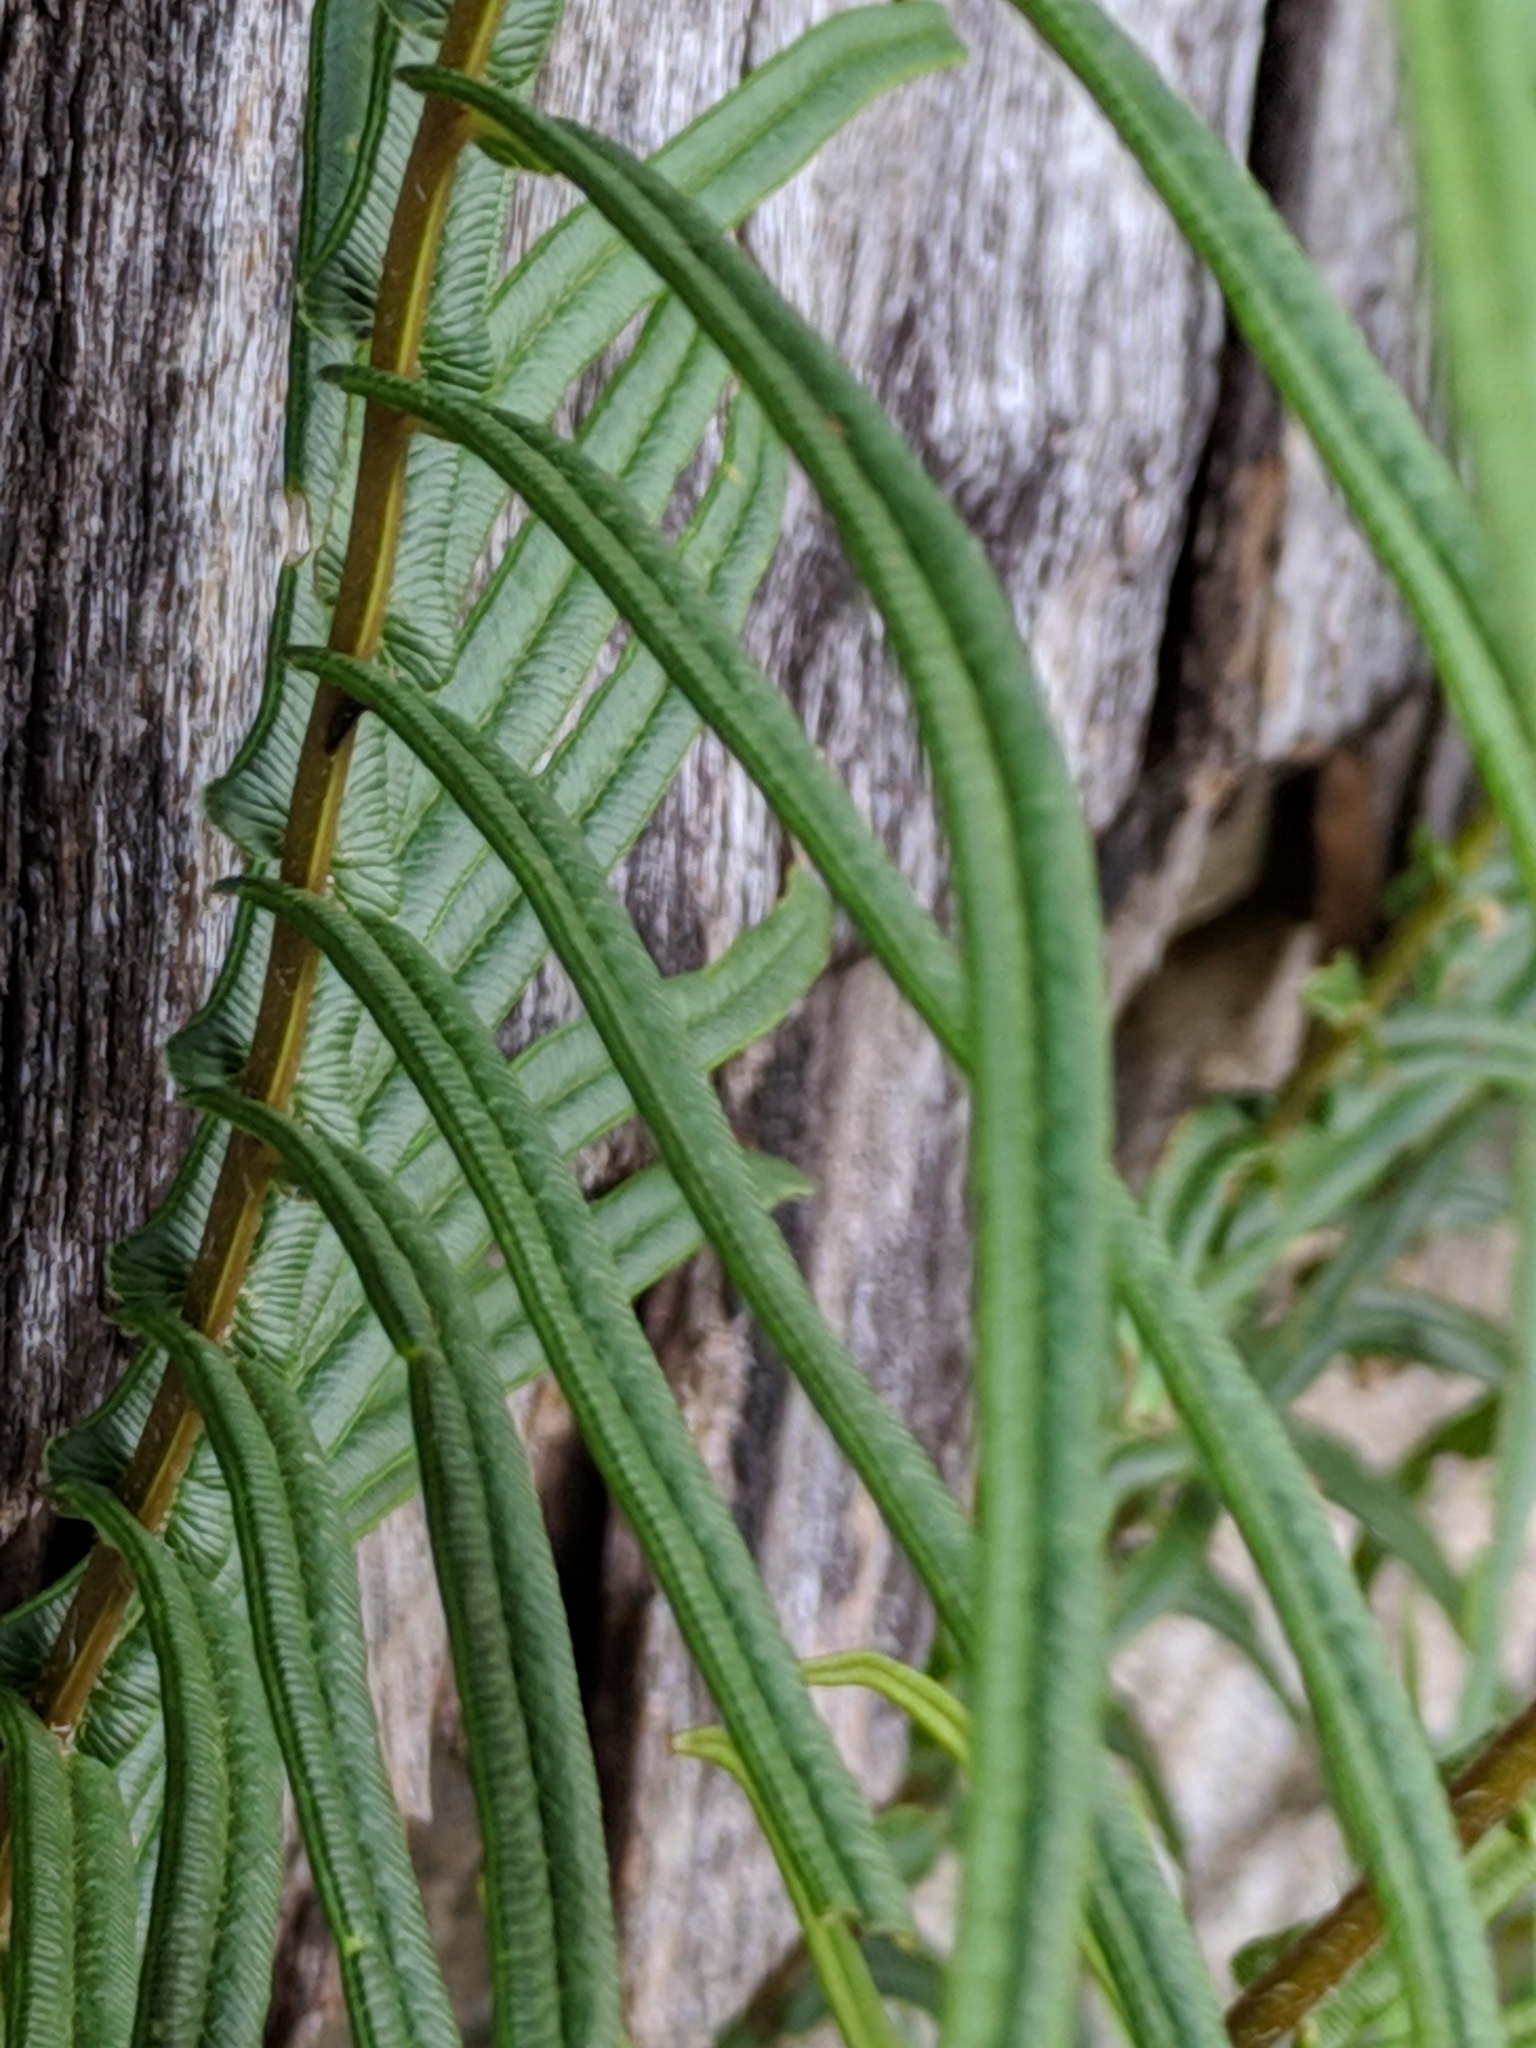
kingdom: Plantae
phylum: Tracheophyta
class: Polypodiopsida
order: Polypodiales
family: Pteridaceae
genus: Pteris
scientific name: Pteris vittata
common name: Ladder brake
